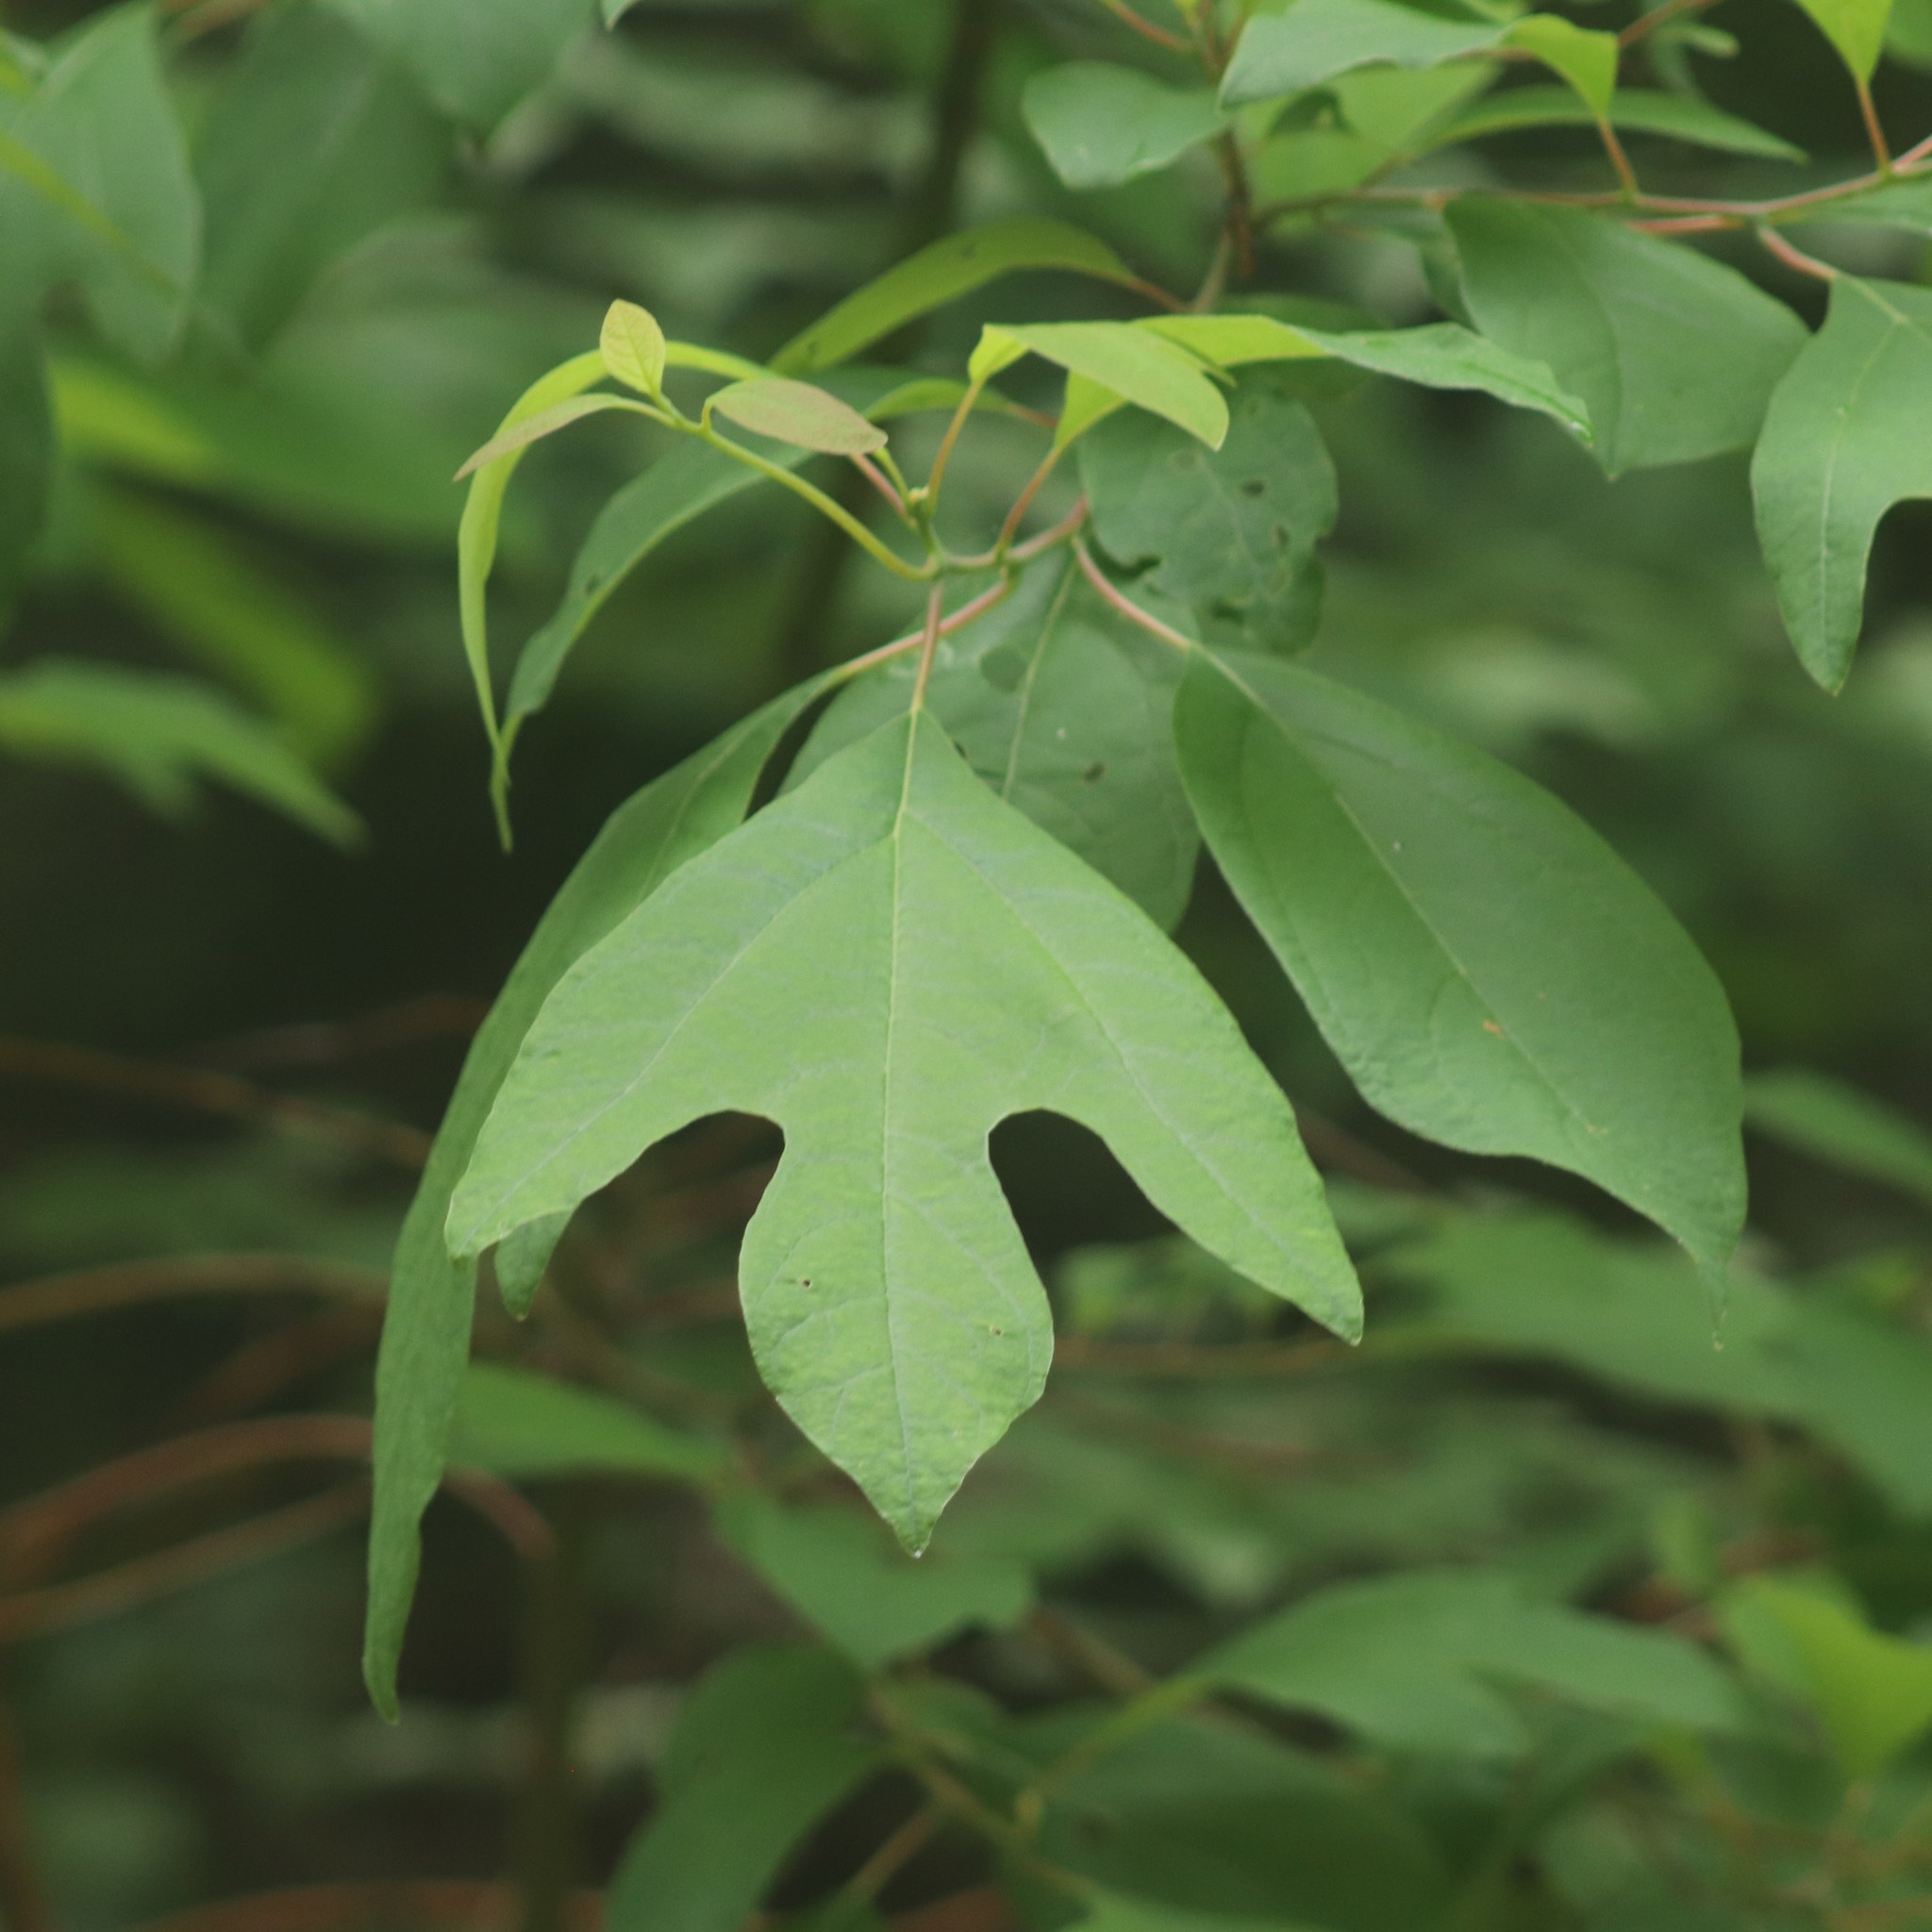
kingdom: Plantae
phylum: Tracheophyta
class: Magnoliopsida
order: Laurales
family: Lauraceae
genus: Sassafras
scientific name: Sassafras albidum
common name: Sassafras
